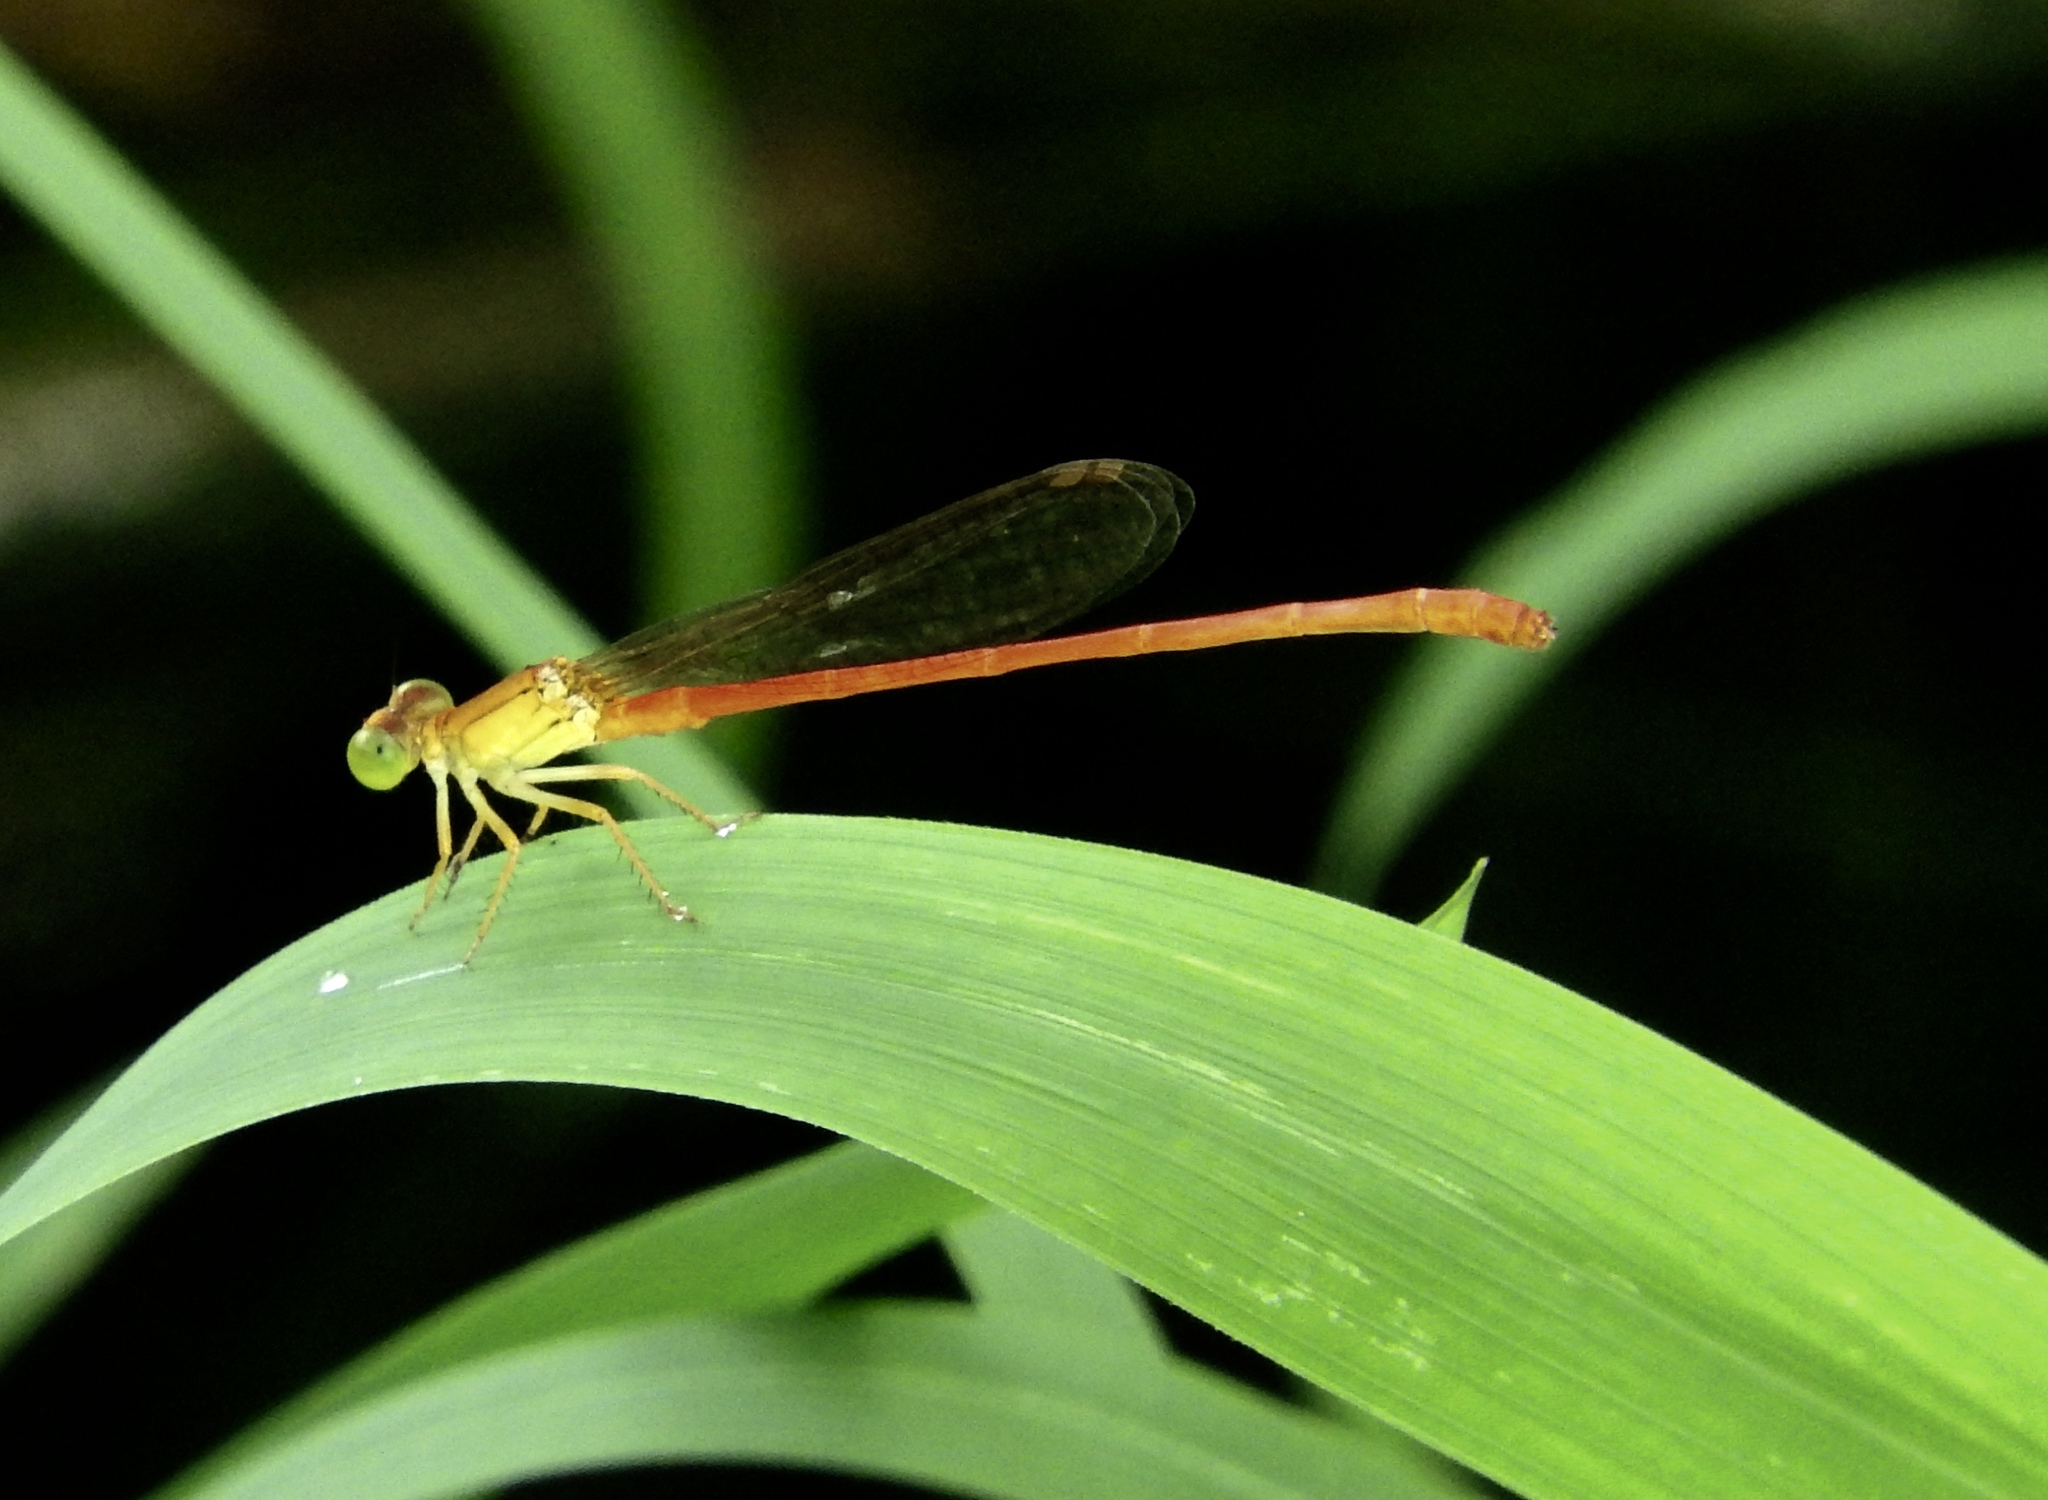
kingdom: Animalia
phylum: Arthropoda
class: Insecta
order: Odonata
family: Coenagrionidae
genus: Ceriagrion
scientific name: Ceriagrion glabrum
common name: Common pond damsel
